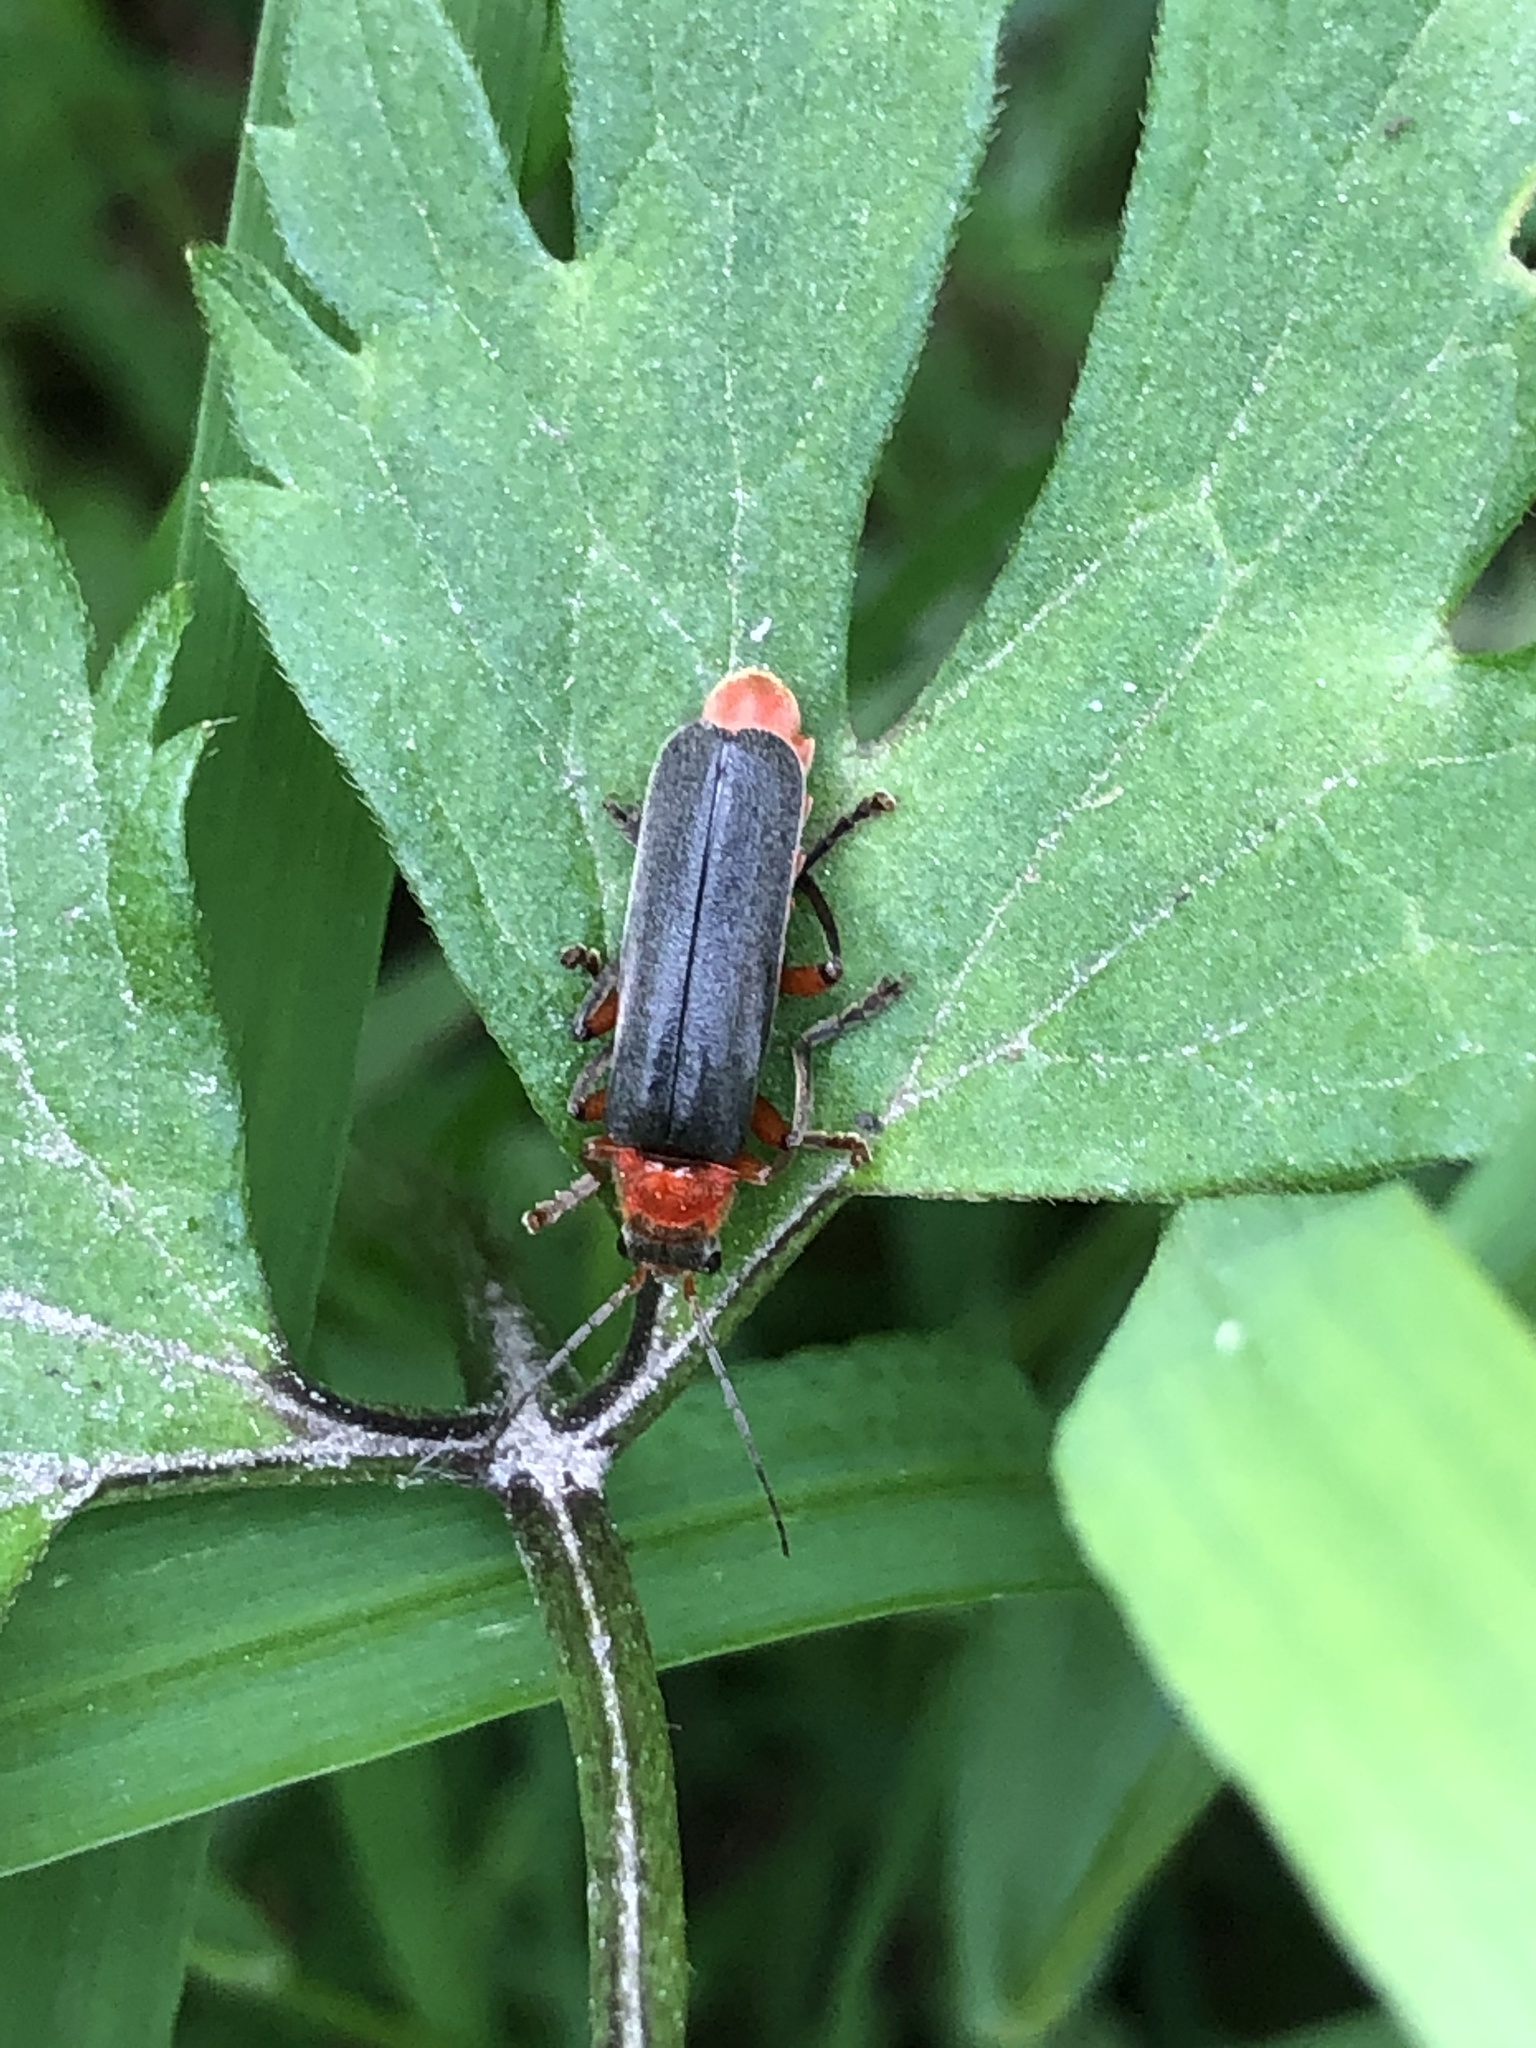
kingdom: Animalia
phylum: Arthropoda
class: Insecta
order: Coleoptera
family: Cantharidae
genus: Cantharis
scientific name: Cantharis pellucida
